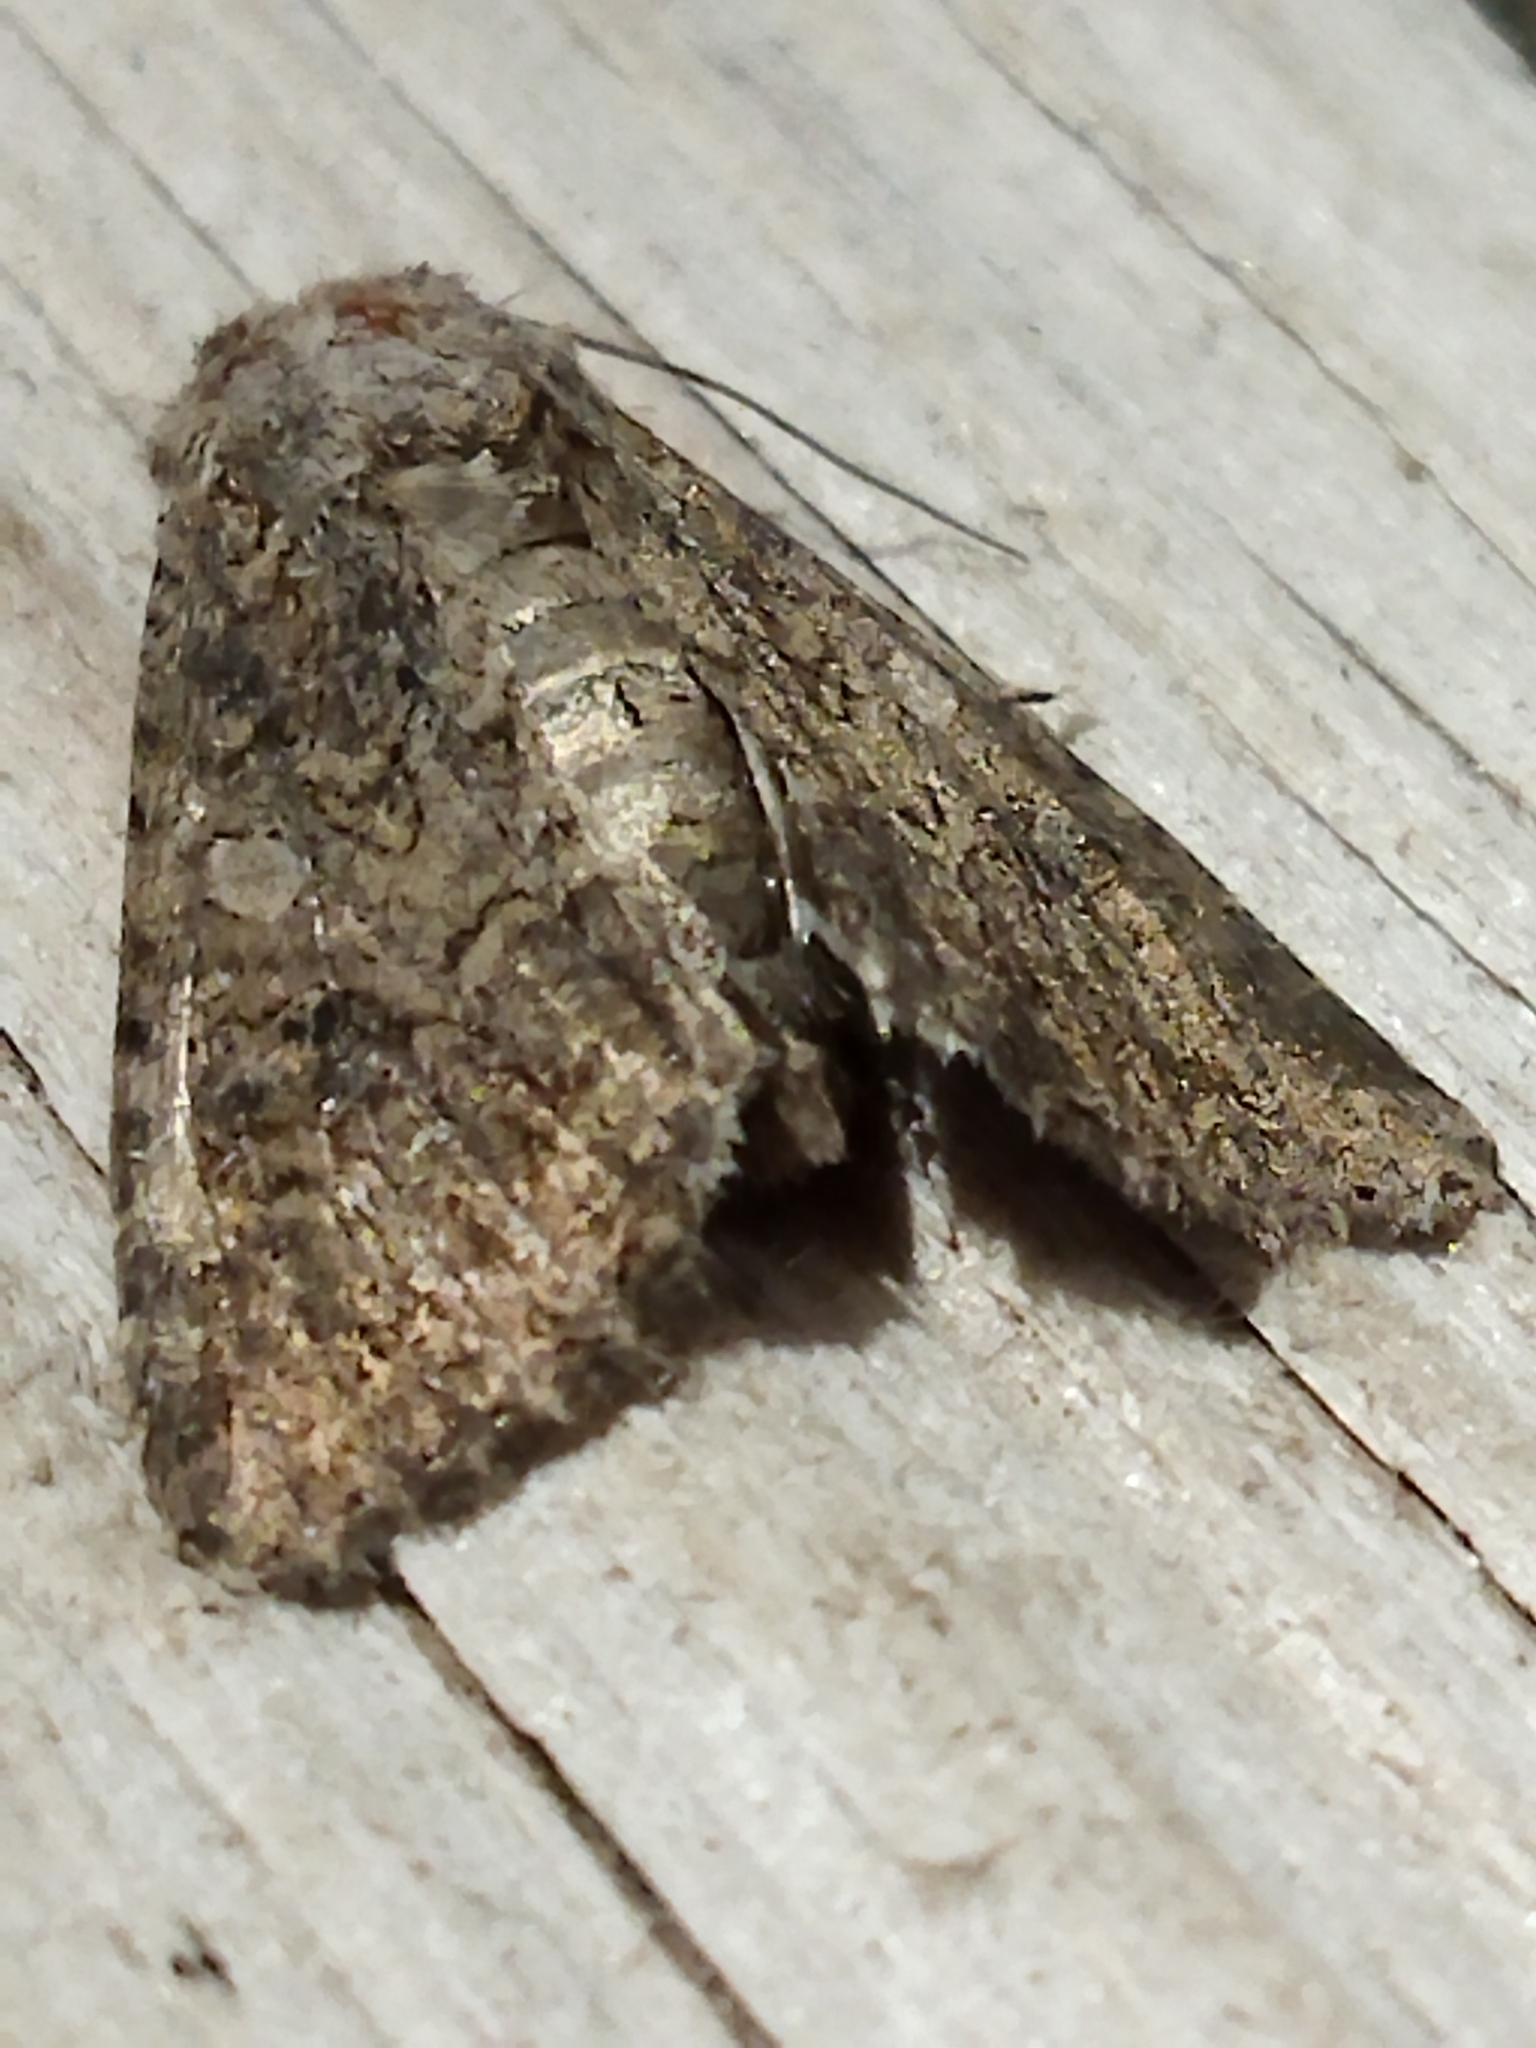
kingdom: Animalia
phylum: Arthropoda
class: Insecta
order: Lepidoptera
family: Noctuidae
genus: Anarta
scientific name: Anarta trifolii
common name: Clover cutworm moth
